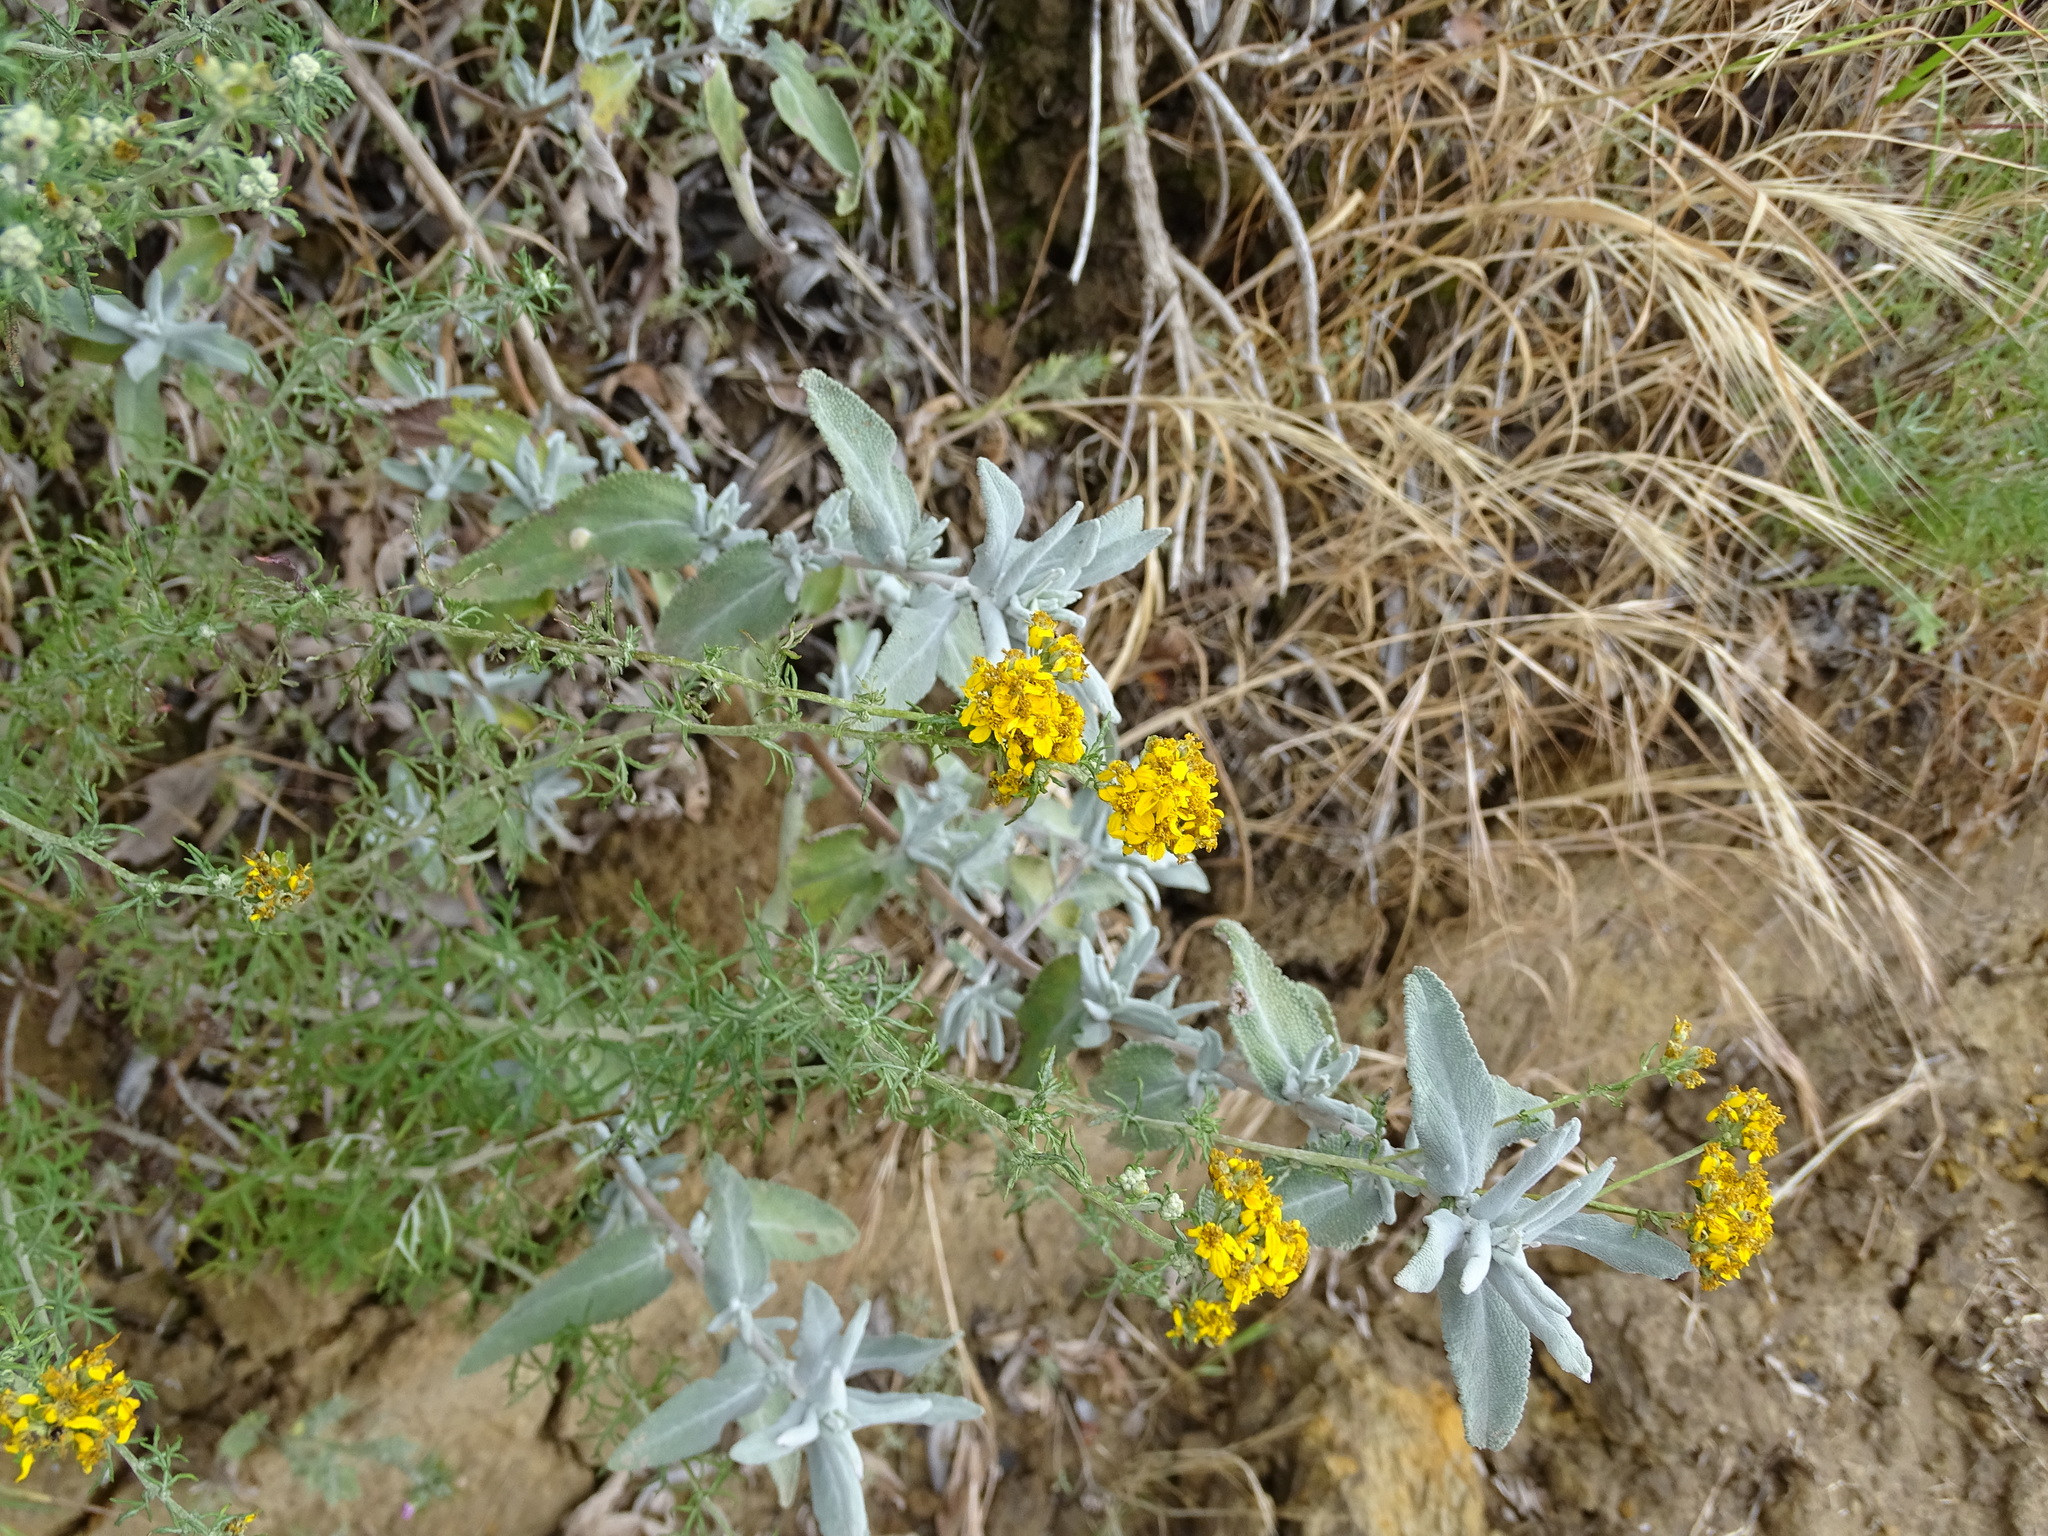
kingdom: Plantae
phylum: Tracheophyta
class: Magnoliopsida
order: Asterales
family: Asteraceae
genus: Eriophyllum
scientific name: Eriophyllum confertiflorum
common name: Golden-yarrow
